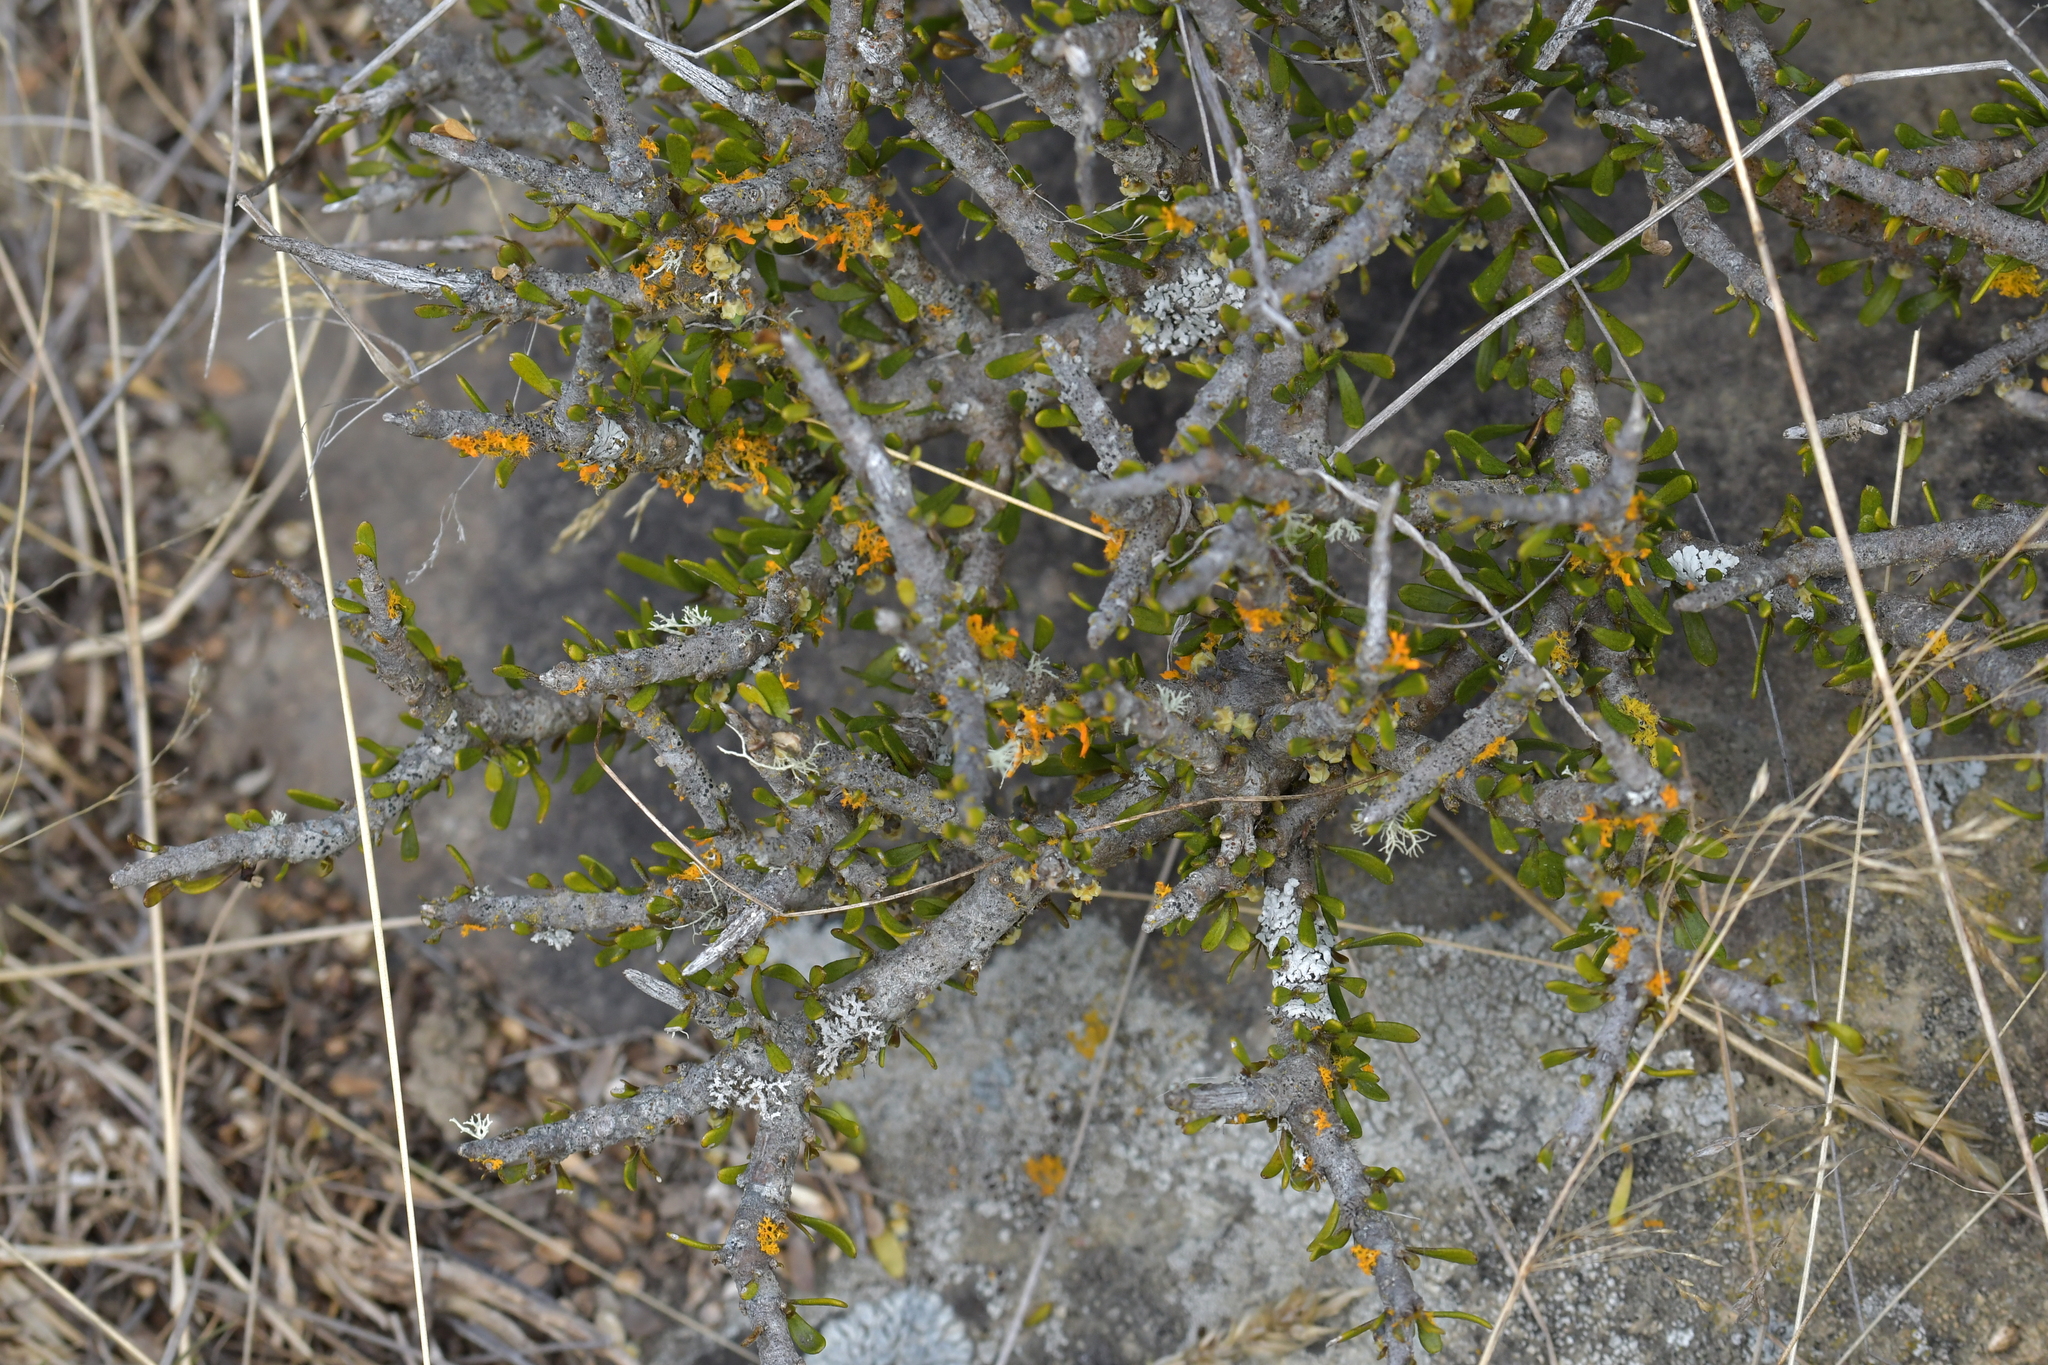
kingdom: Plantae
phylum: Tracheophyta
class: Magnoliopsida
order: Malpighiales
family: Violaceae
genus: Melicytus
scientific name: Melicytus alpinus
